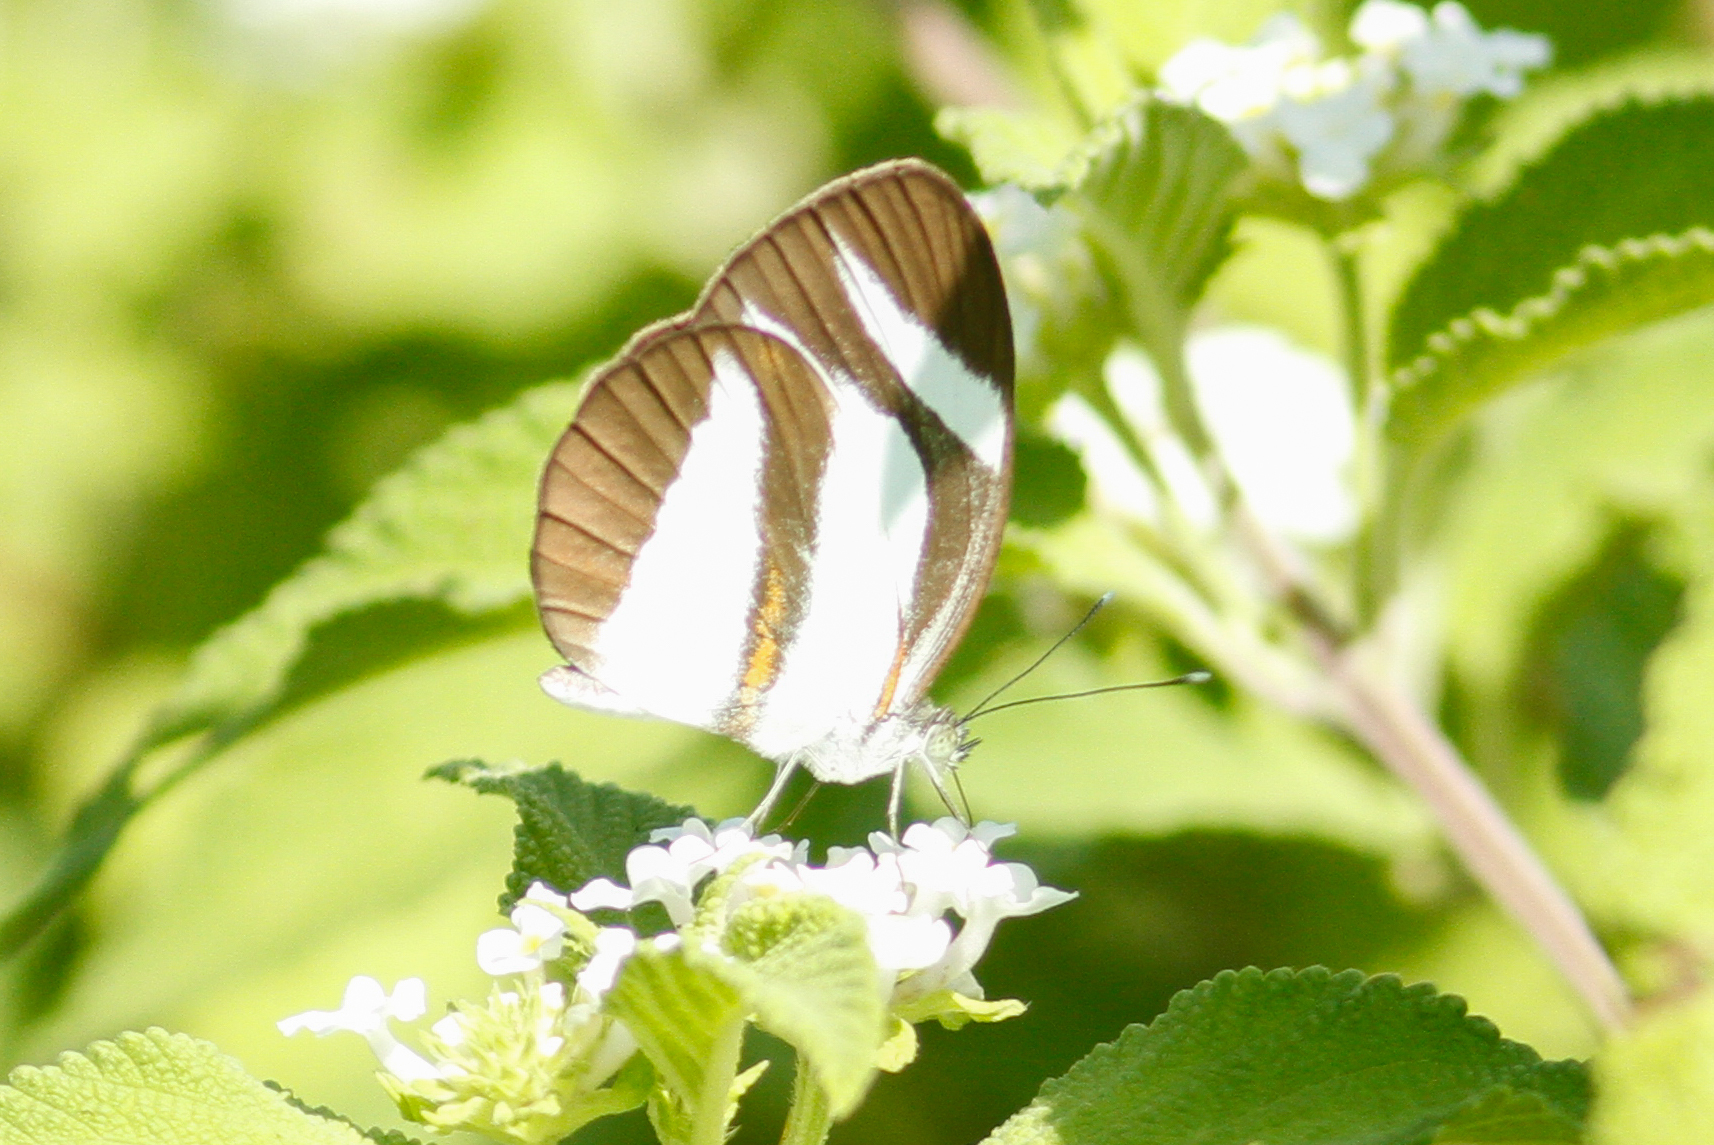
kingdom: Animalia
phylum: Arthropoda
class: Insecta
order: Lepidoptera
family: Pieridae
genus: Itaballia
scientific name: Itaballia marana
